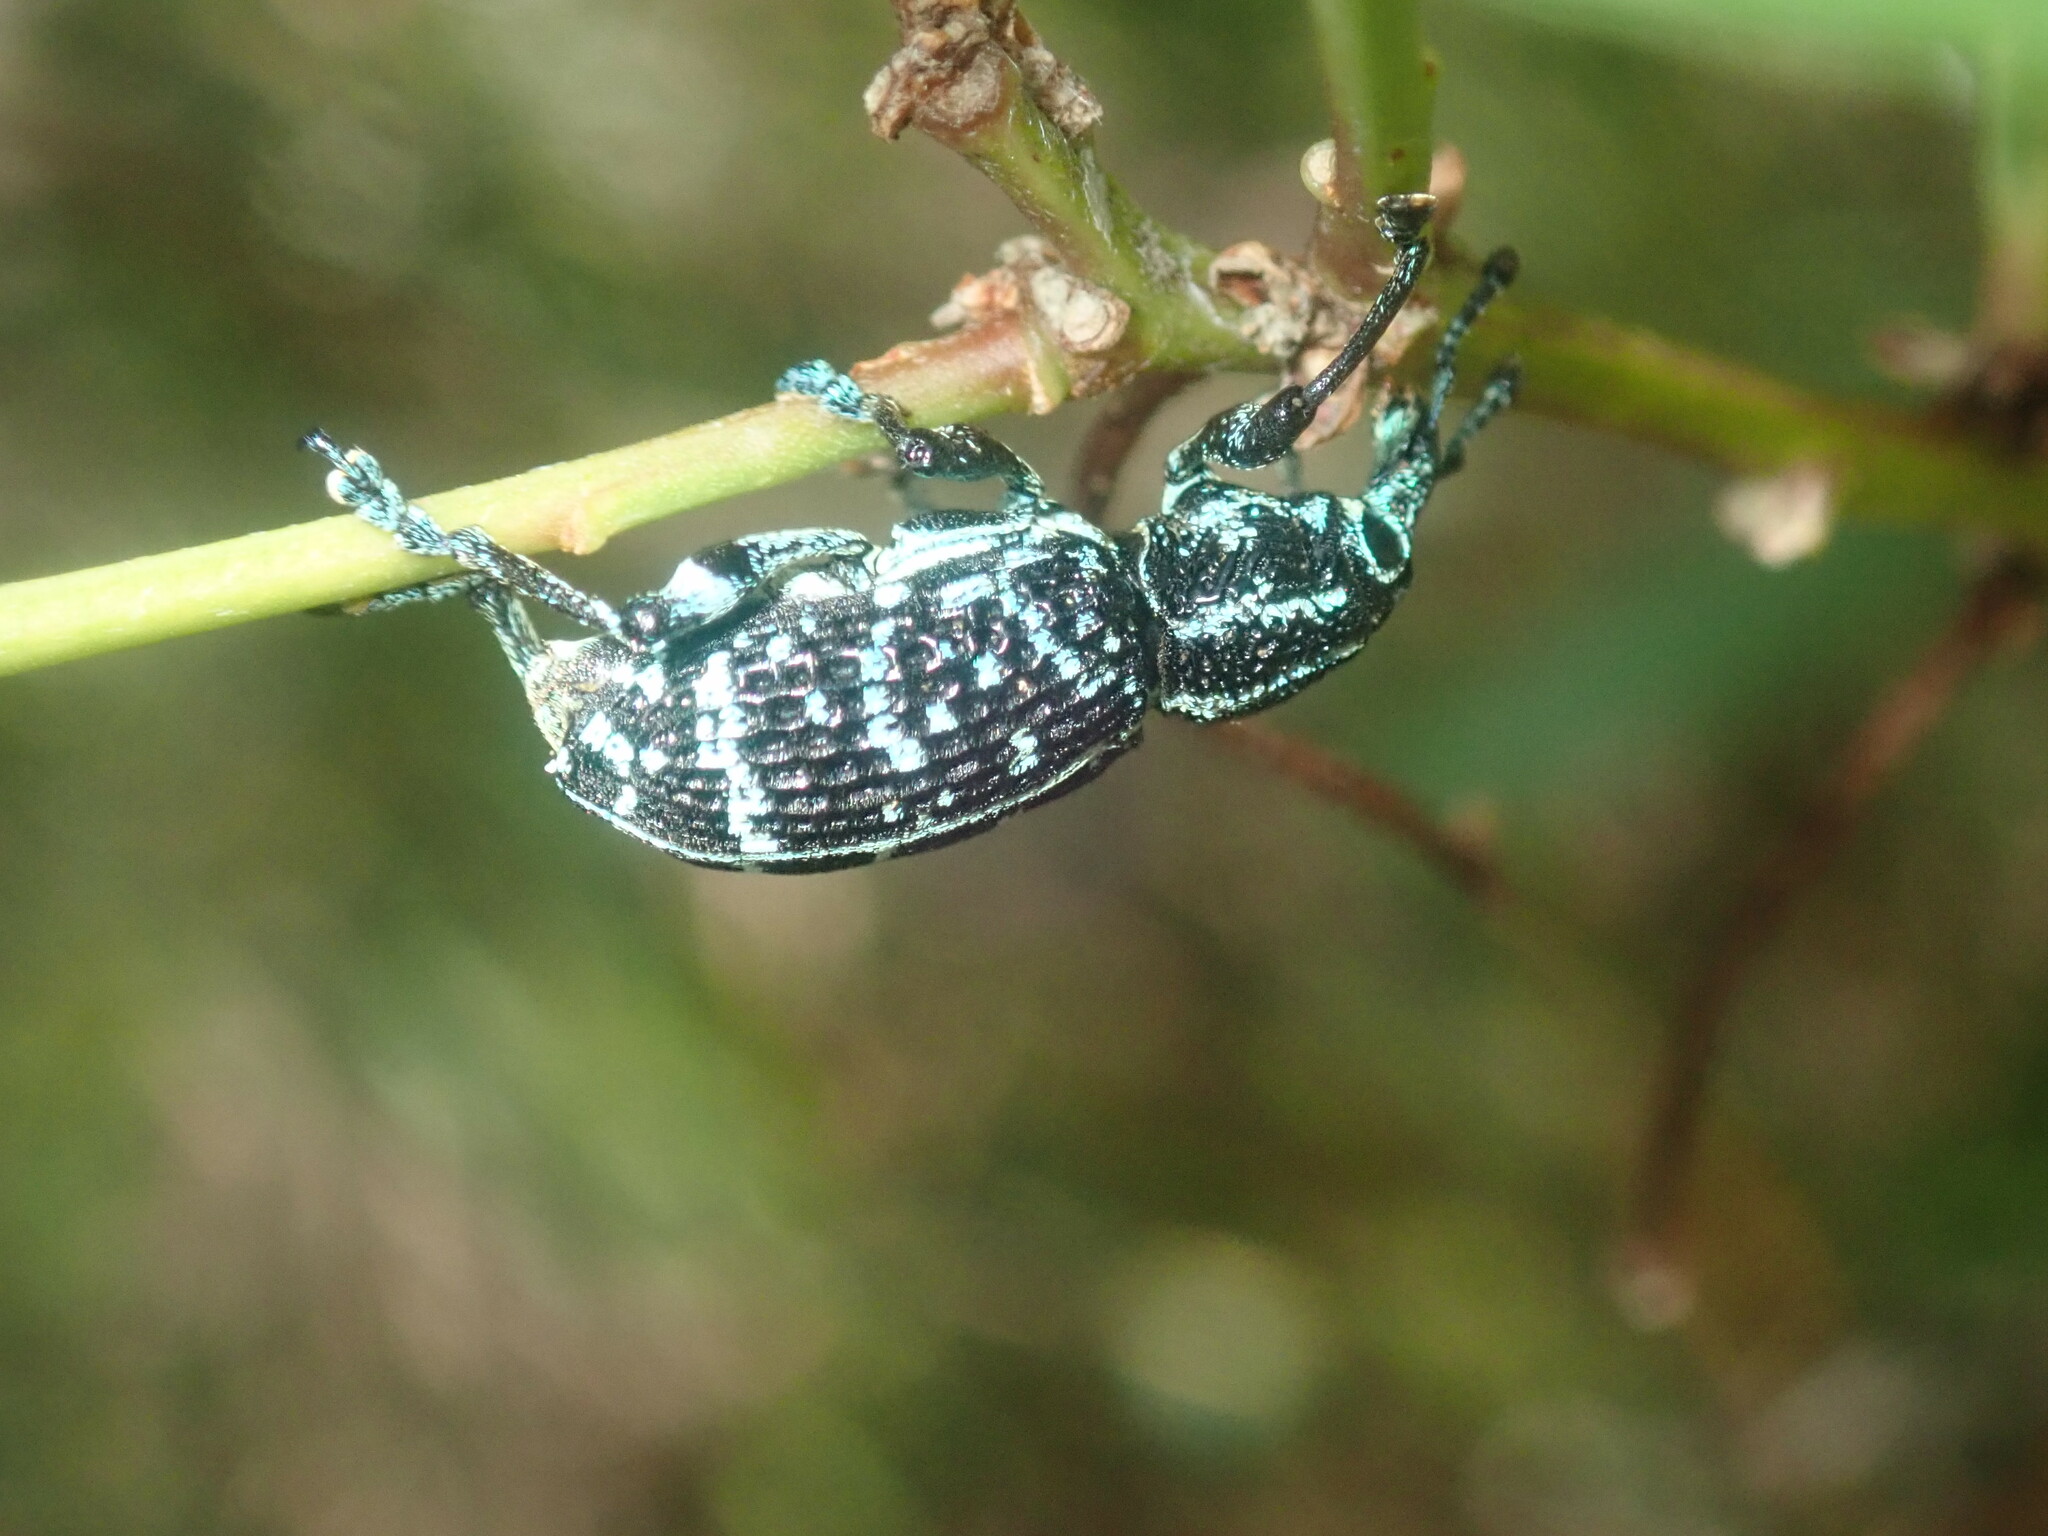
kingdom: Animalia
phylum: Arthropoda
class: Insecta
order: Coleoptera
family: Curculionidae
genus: Chrysolopus
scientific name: Chrysolopus spectabilis
